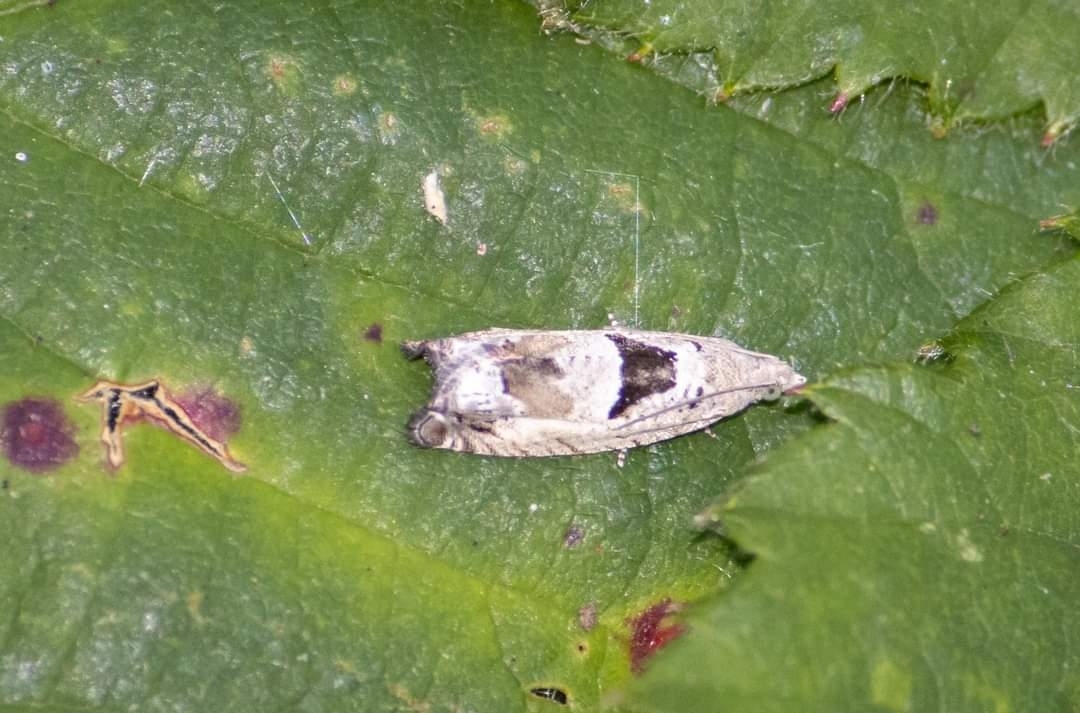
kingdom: Animalia
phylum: Arthropoda
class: Insecta
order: Lepidoptera
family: Tortricidae
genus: Epinotia
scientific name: Epinotia ramella
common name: Small birch bell
